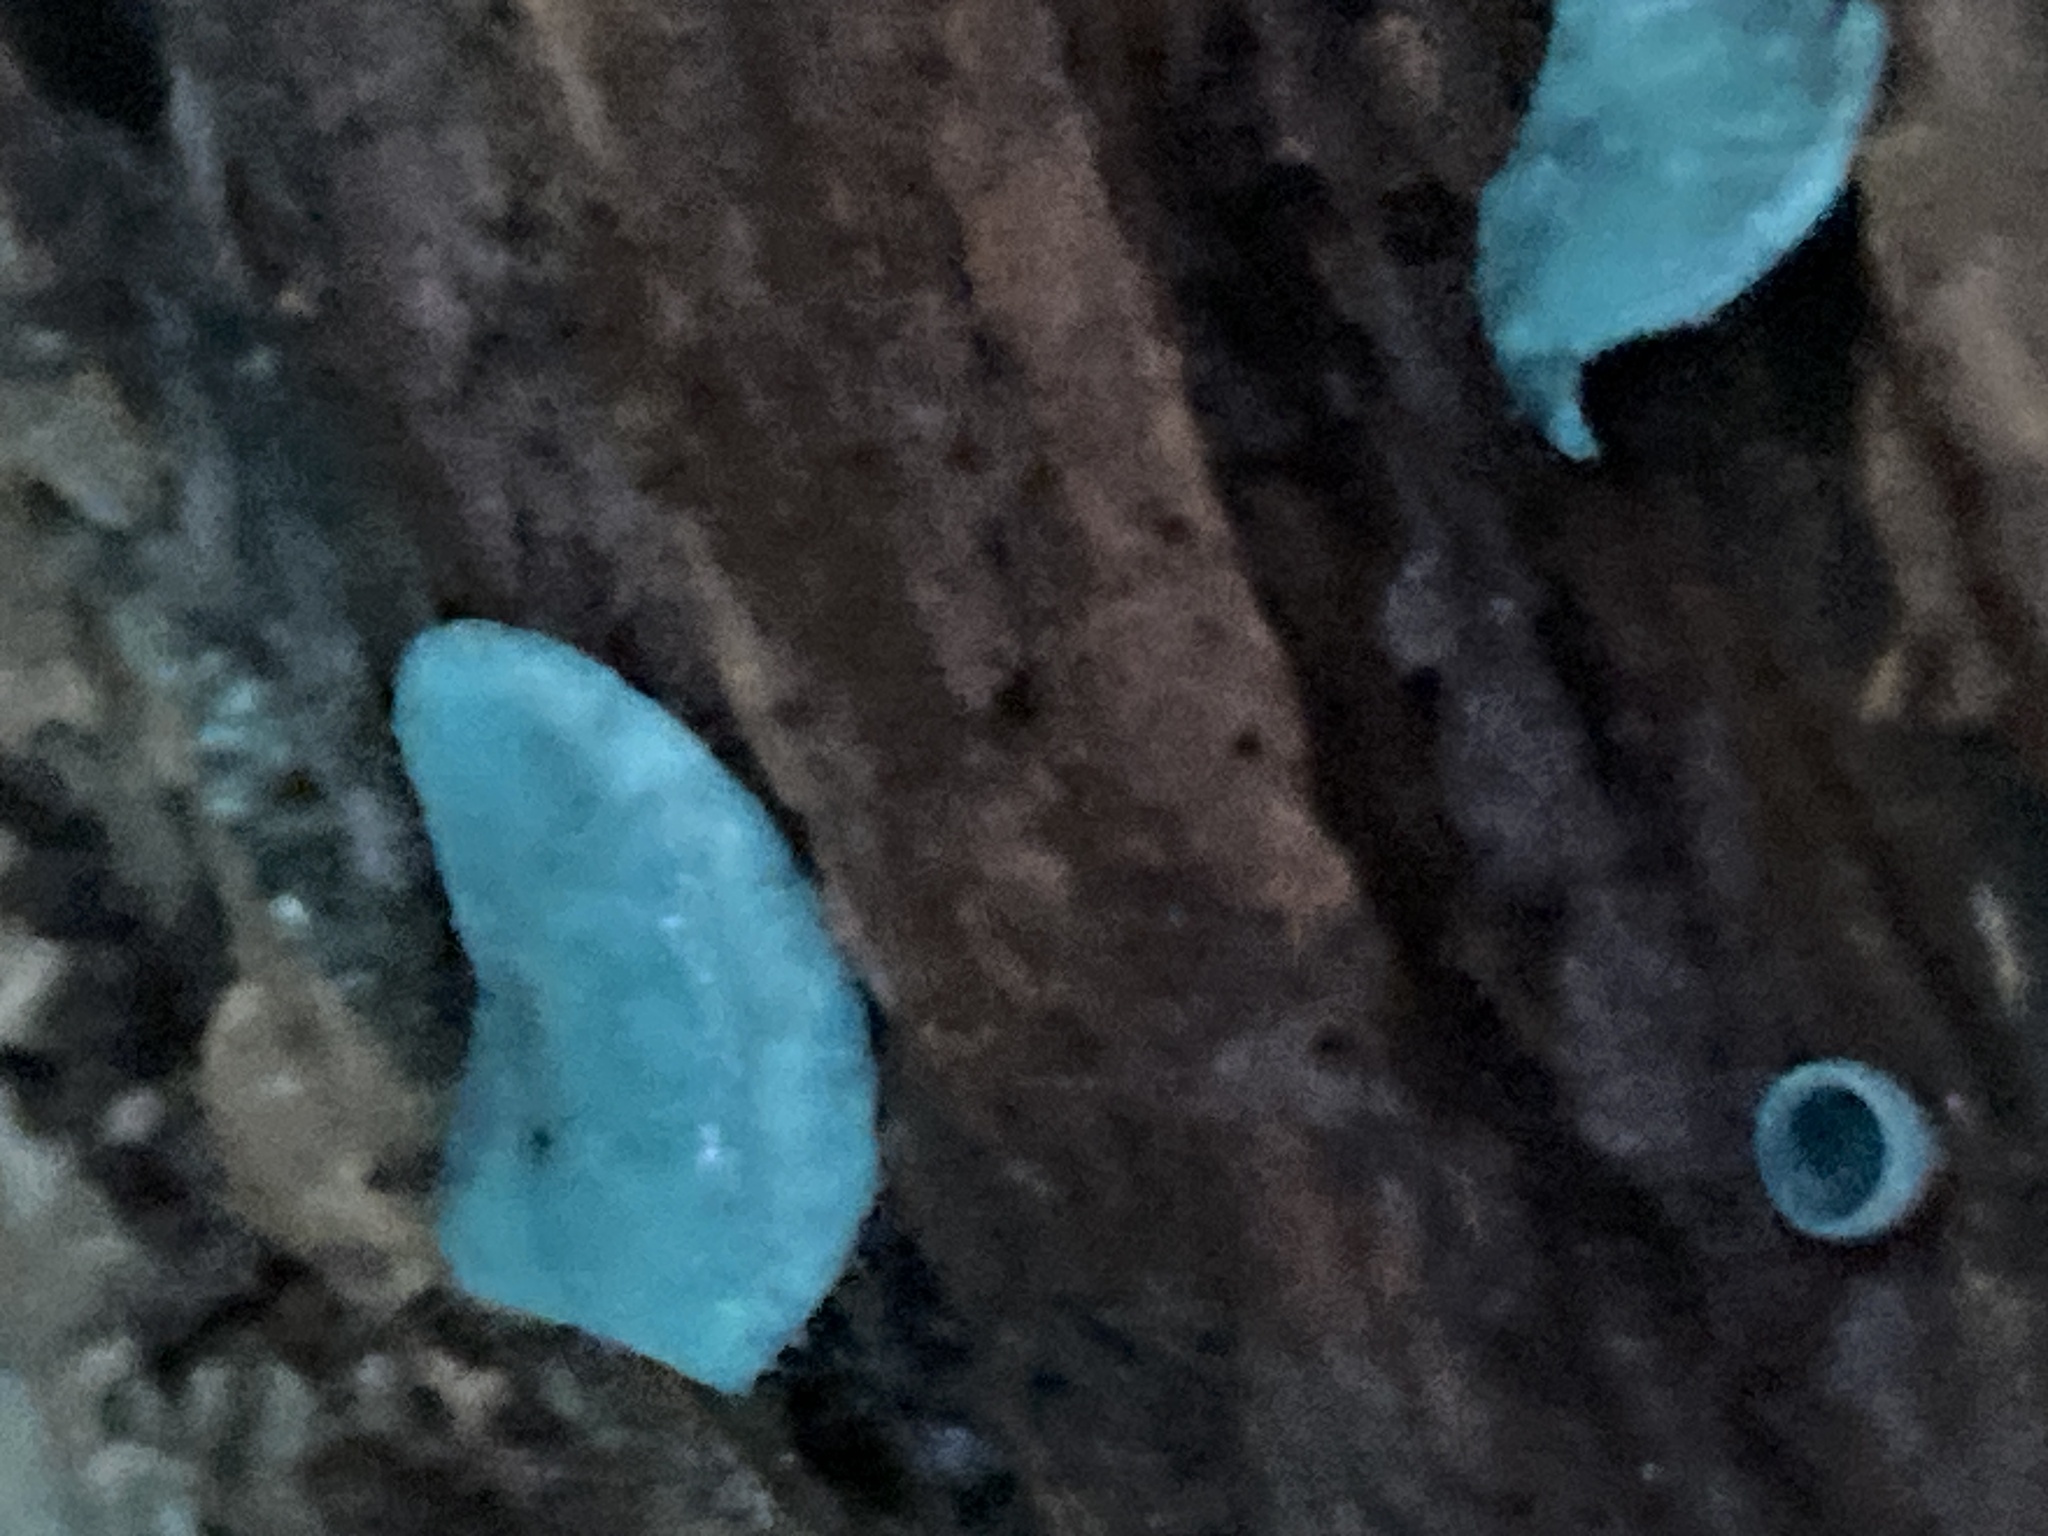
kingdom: Fungi
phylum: Ascomycota
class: Leotiomycetes
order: Helotiales
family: Chlorociboriaceae
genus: Chlorociboria
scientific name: Chlorociboria aeruginascens
